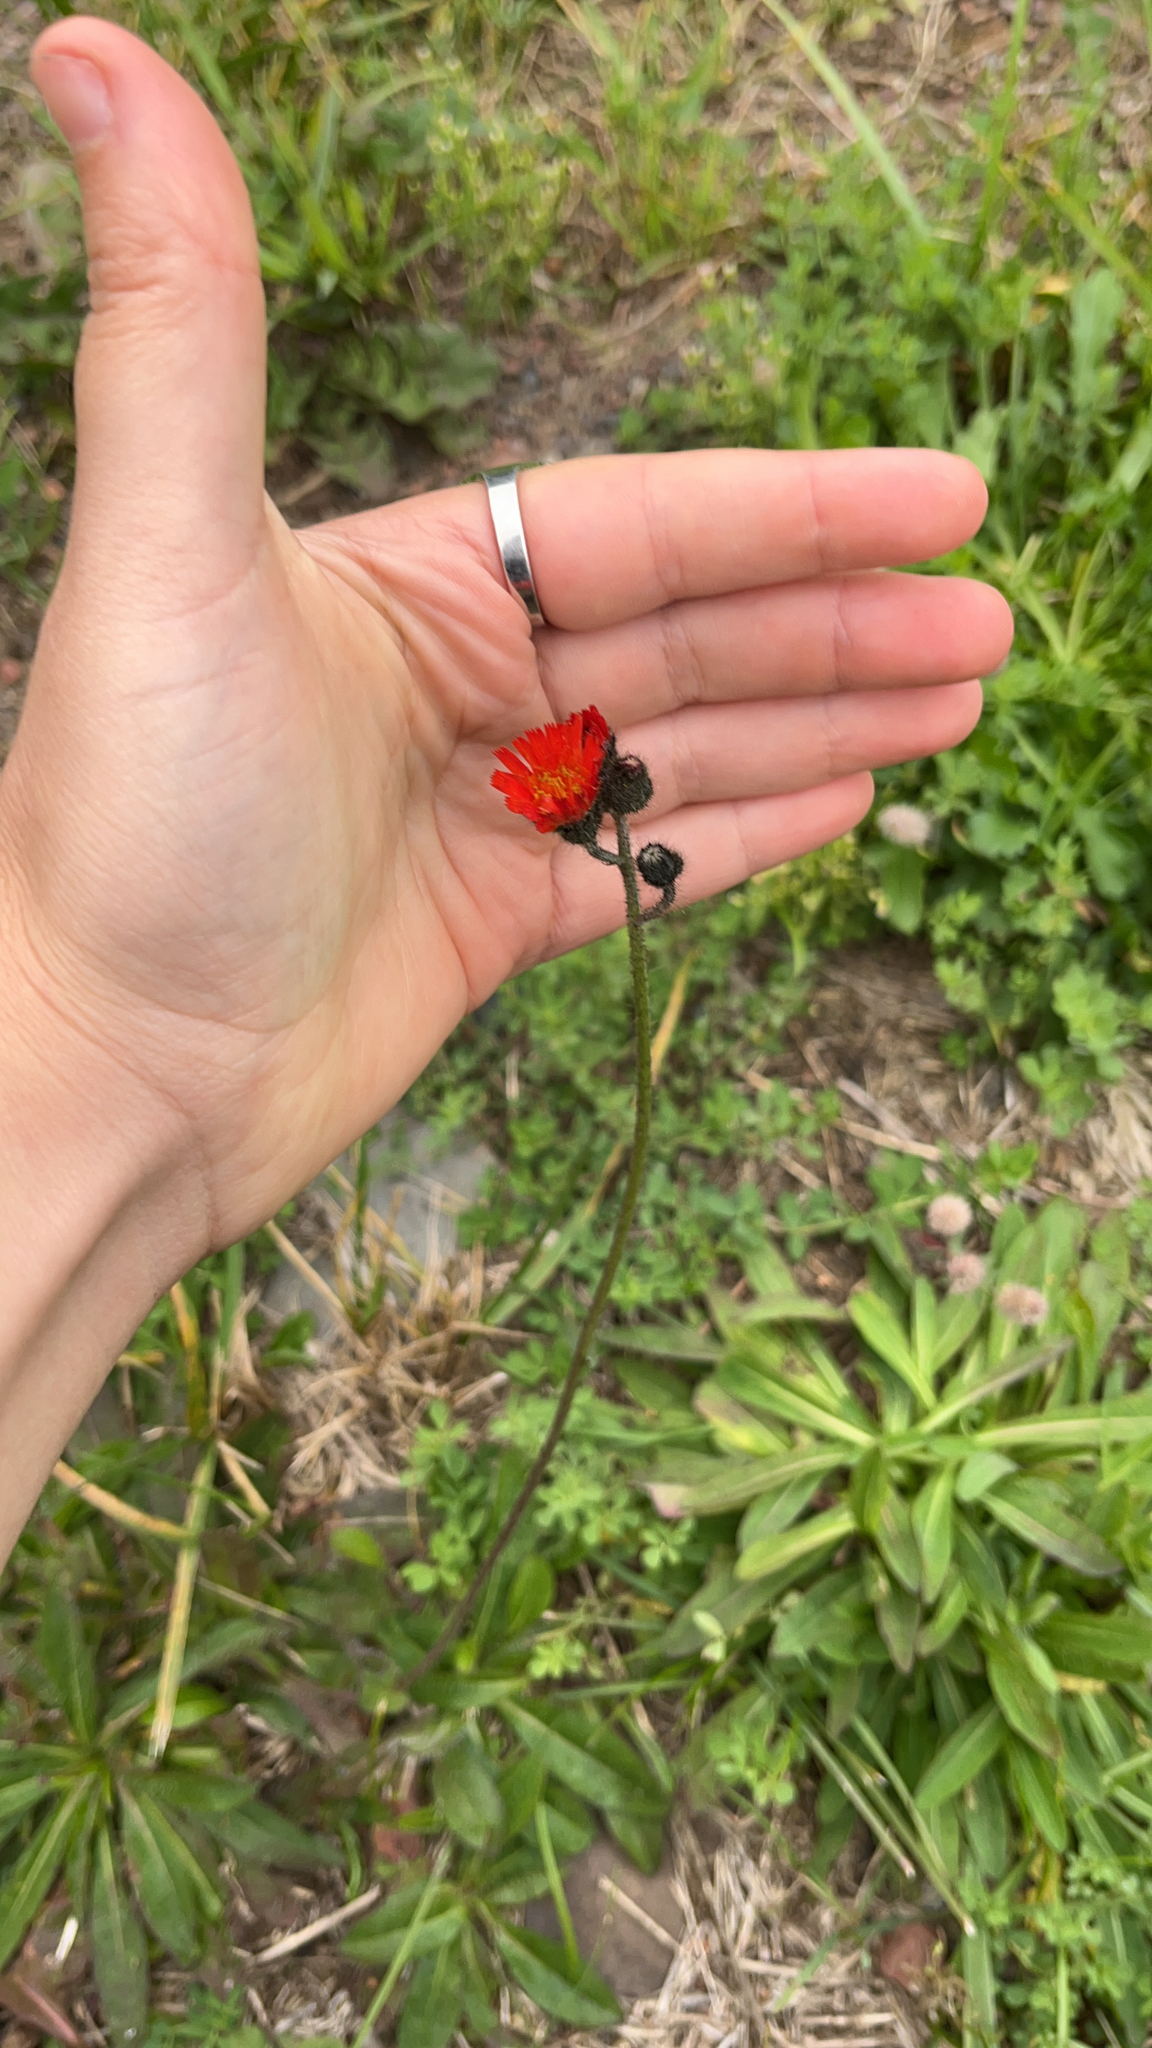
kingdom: Plantae
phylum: Tracheophyta
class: Magnoliopsida
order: Asterales
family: Asteraceae
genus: Pilosella
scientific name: Pilosella aurantiaca
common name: Fox-and-cubs
